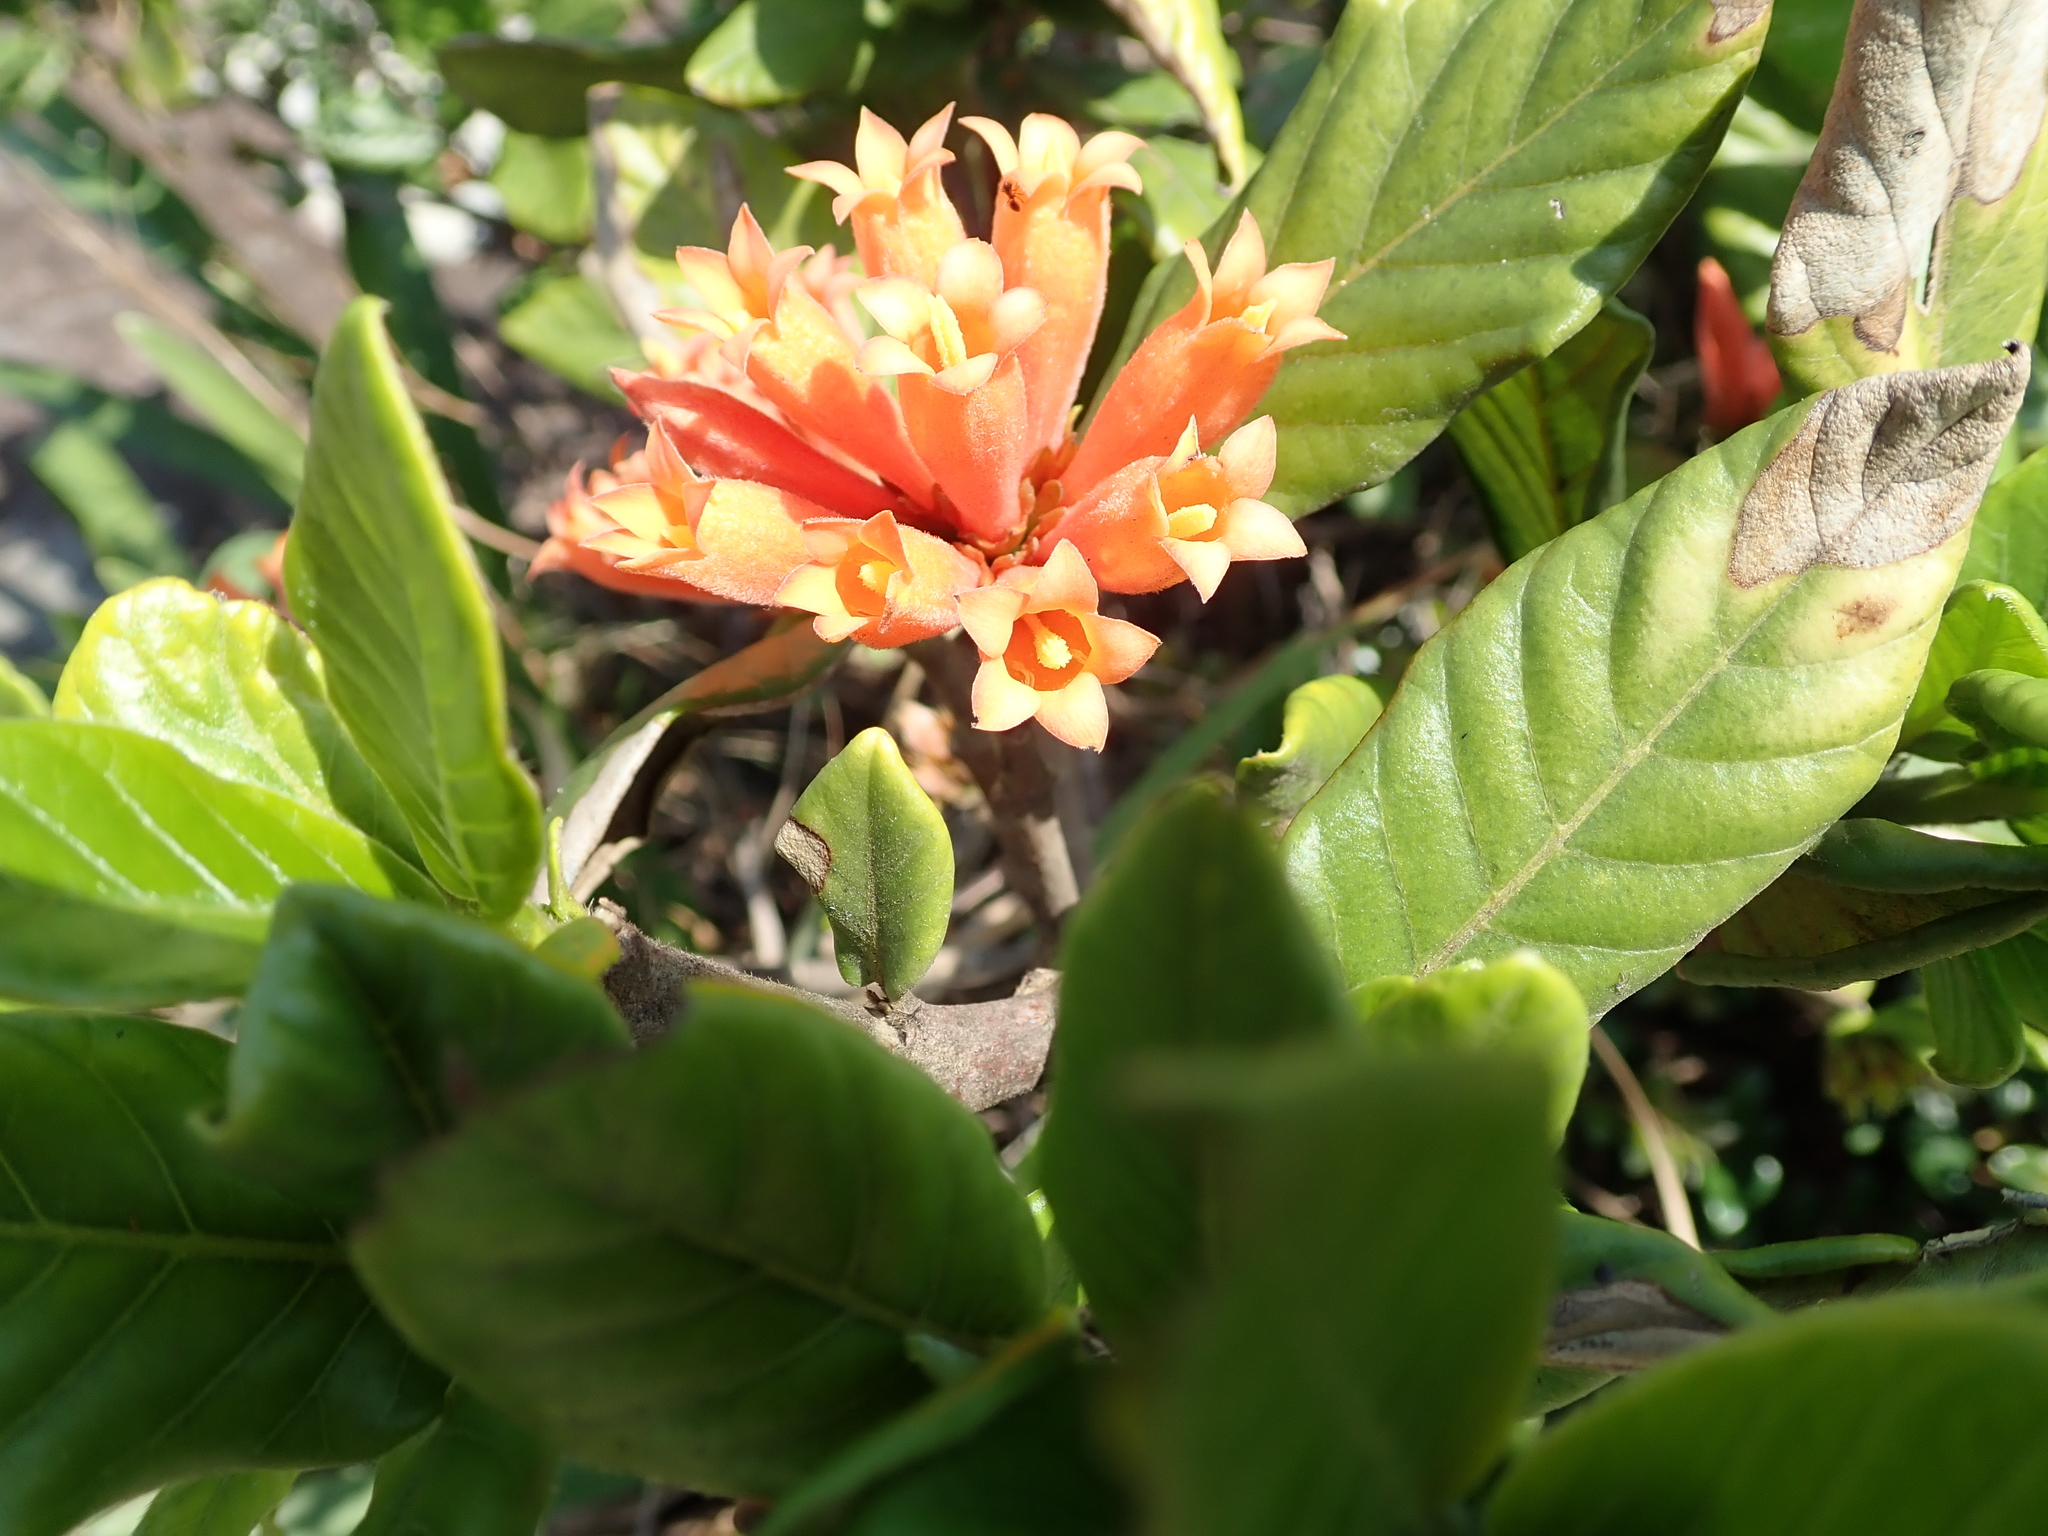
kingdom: Plantae
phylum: Tracheophyta
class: Magnoliopsida
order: Gentianales
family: Rubiaceae
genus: Burchellia
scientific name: Burchellia bubalina
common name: Wild pomegranate
